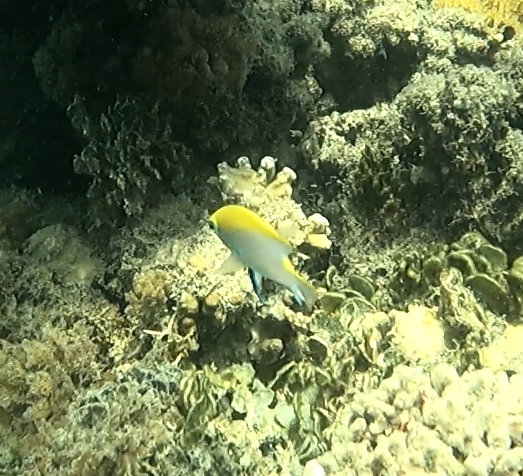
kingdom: Animalia
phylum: Chordata
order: Perciformes
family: Pomacentridae
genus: Neoglyphidodon
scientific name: Neoglyphidodon melas
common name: Black damsel
